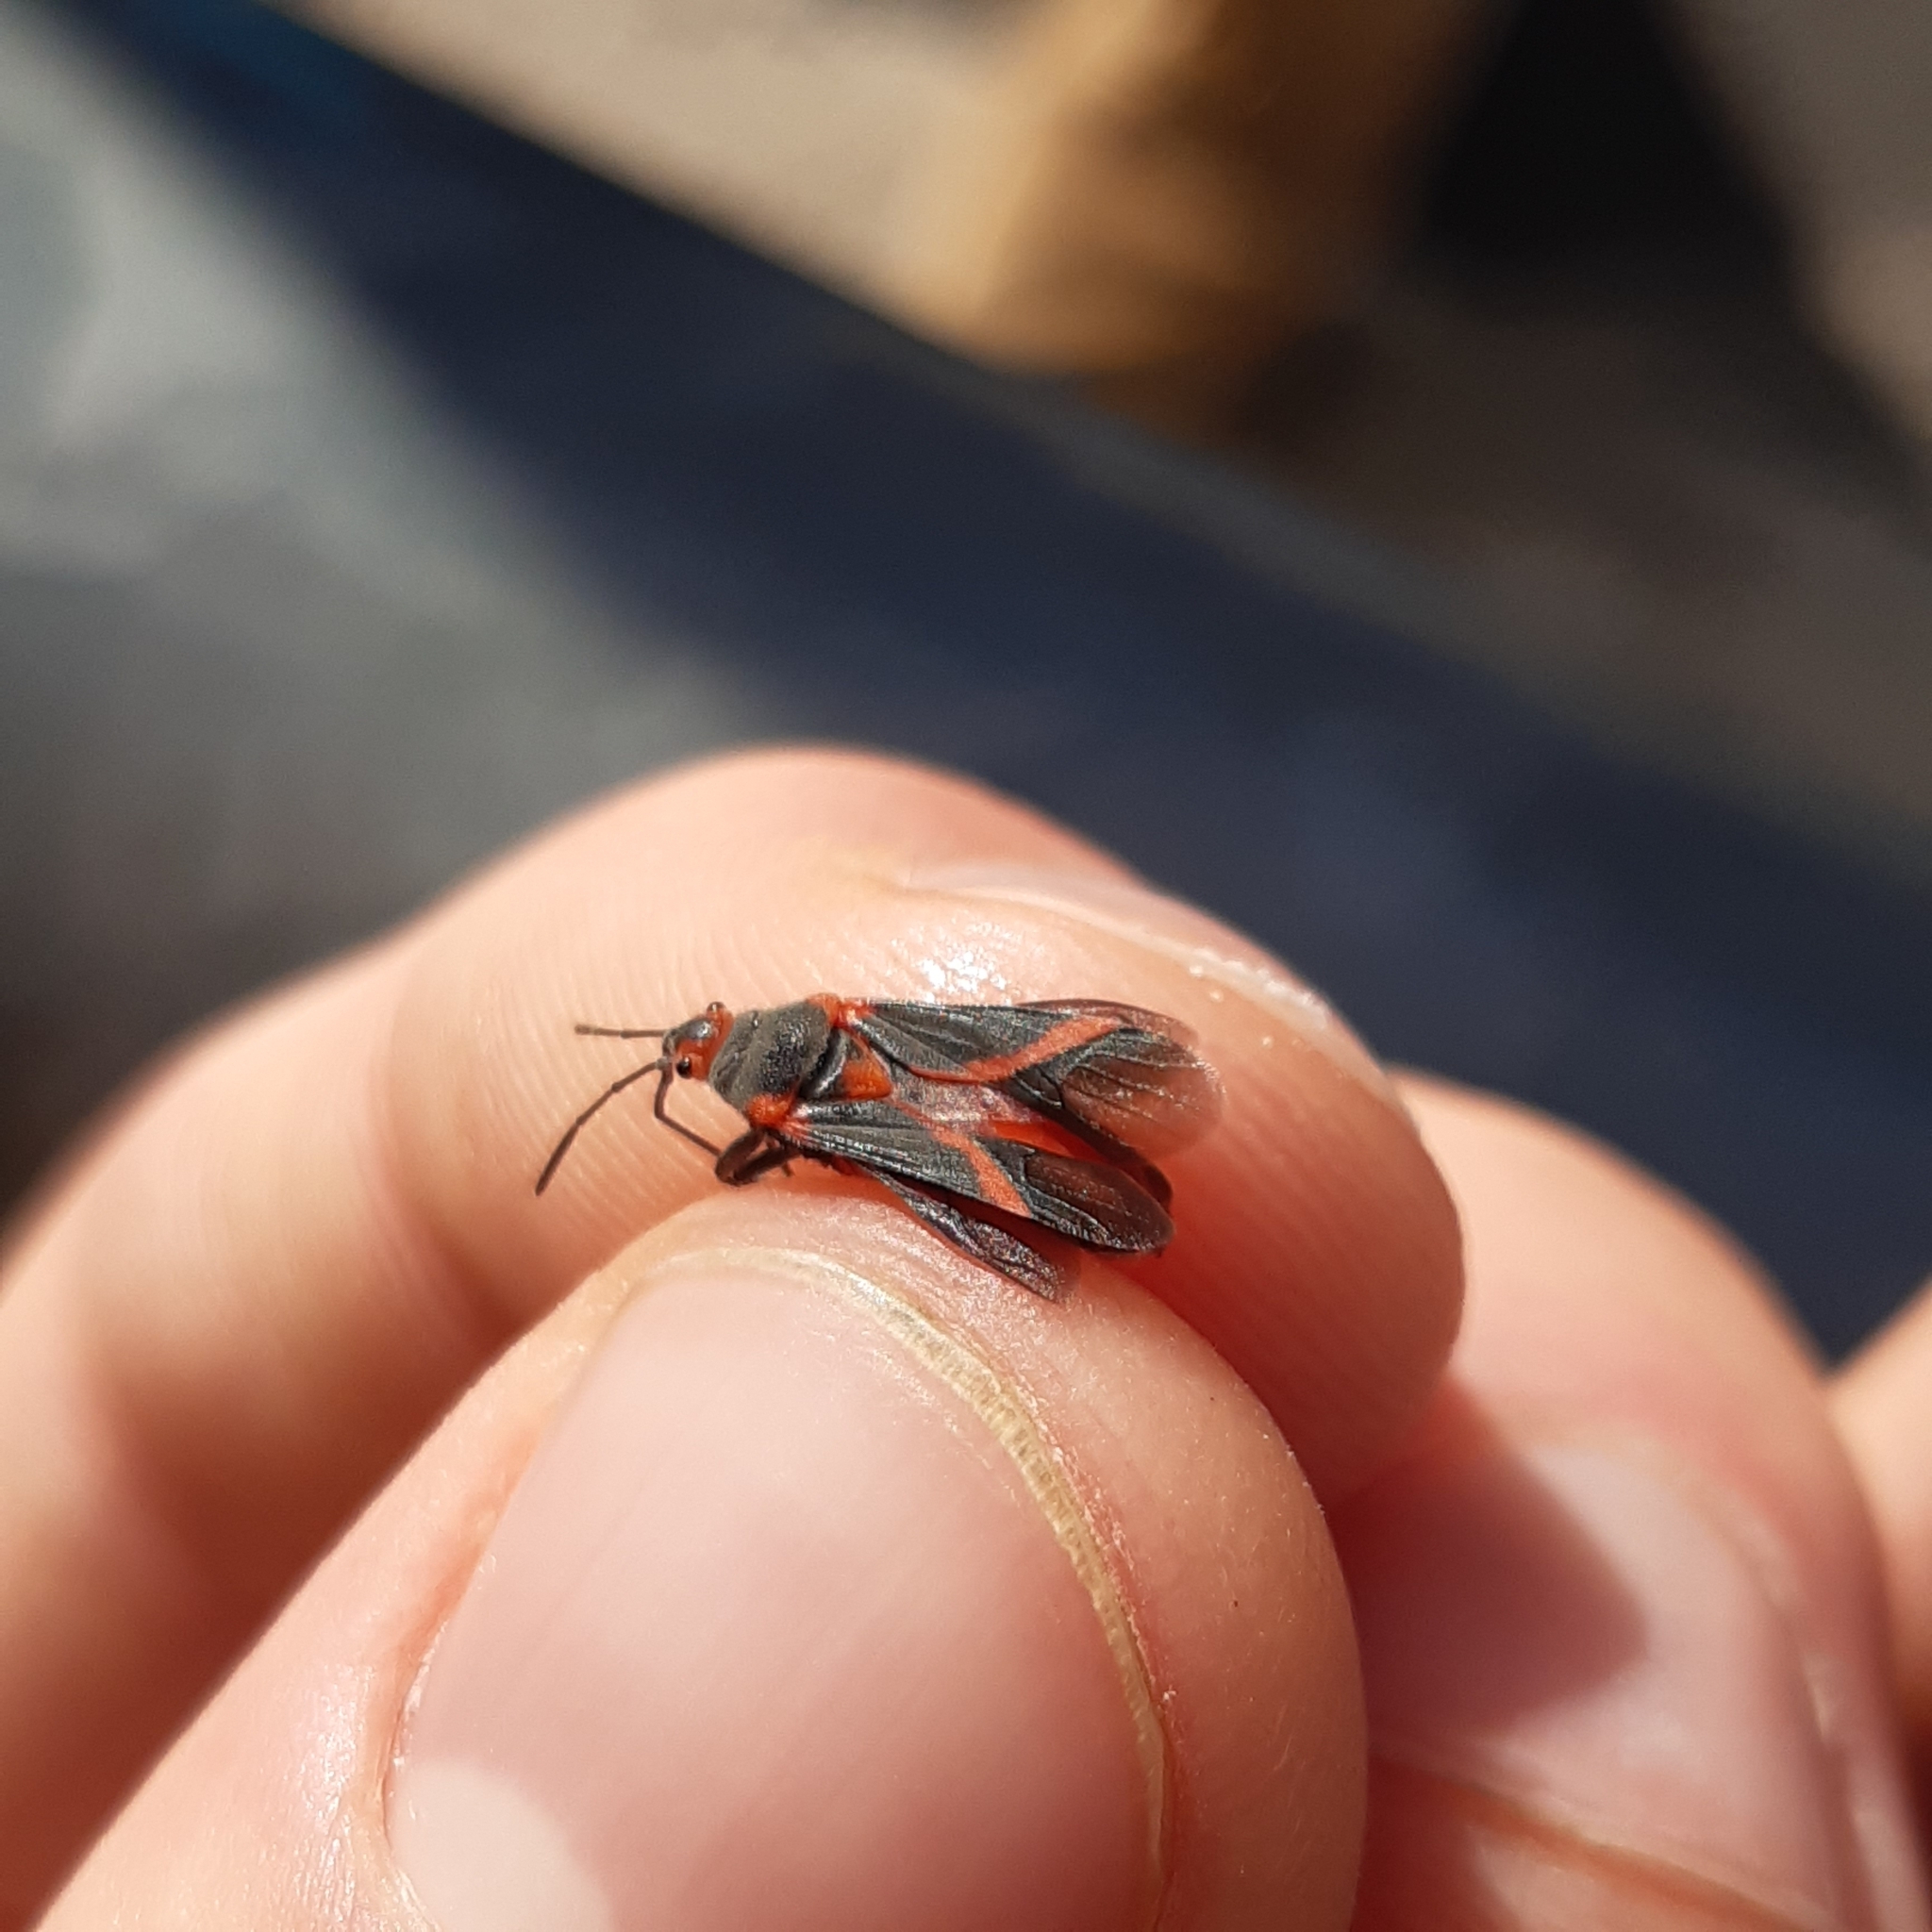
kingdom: Animalia
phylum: Arthropoda
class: Insecta
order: Hemiptera
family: Lygaeidae
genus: Caenocoris
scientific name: Caenocoris nerii
